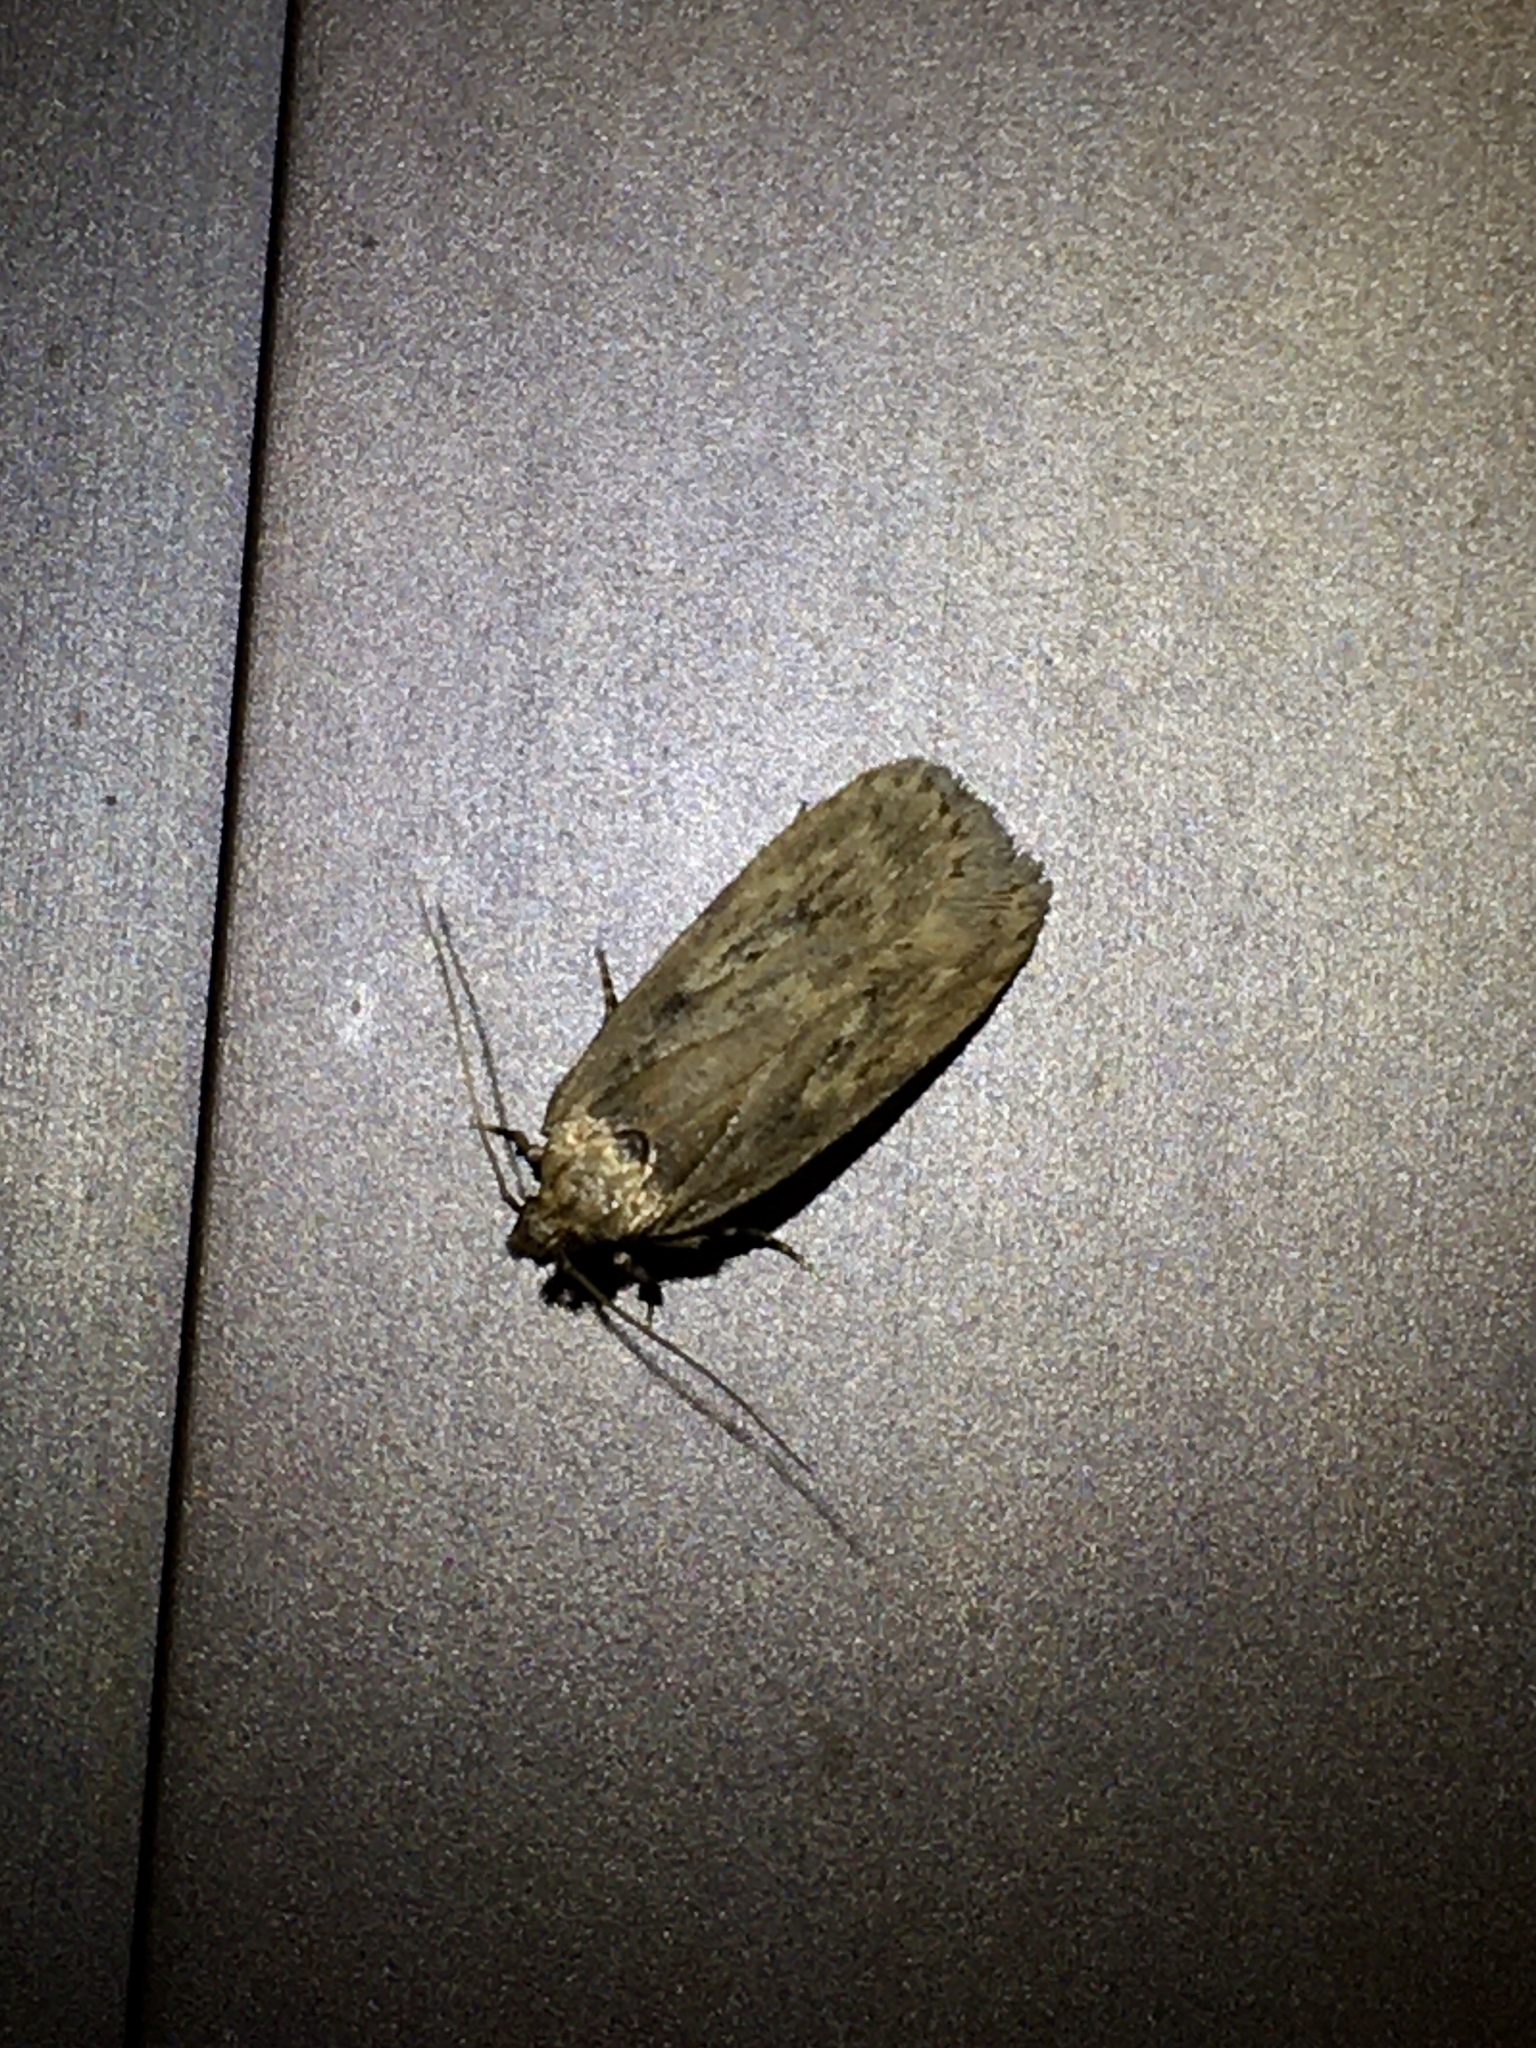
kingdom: Animalia
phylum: Arthropoda
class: Insecta
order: Lepidoptera
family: Depressariidae
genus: Depressaria
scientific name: Depressaria radiella
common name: Parsnip moth
